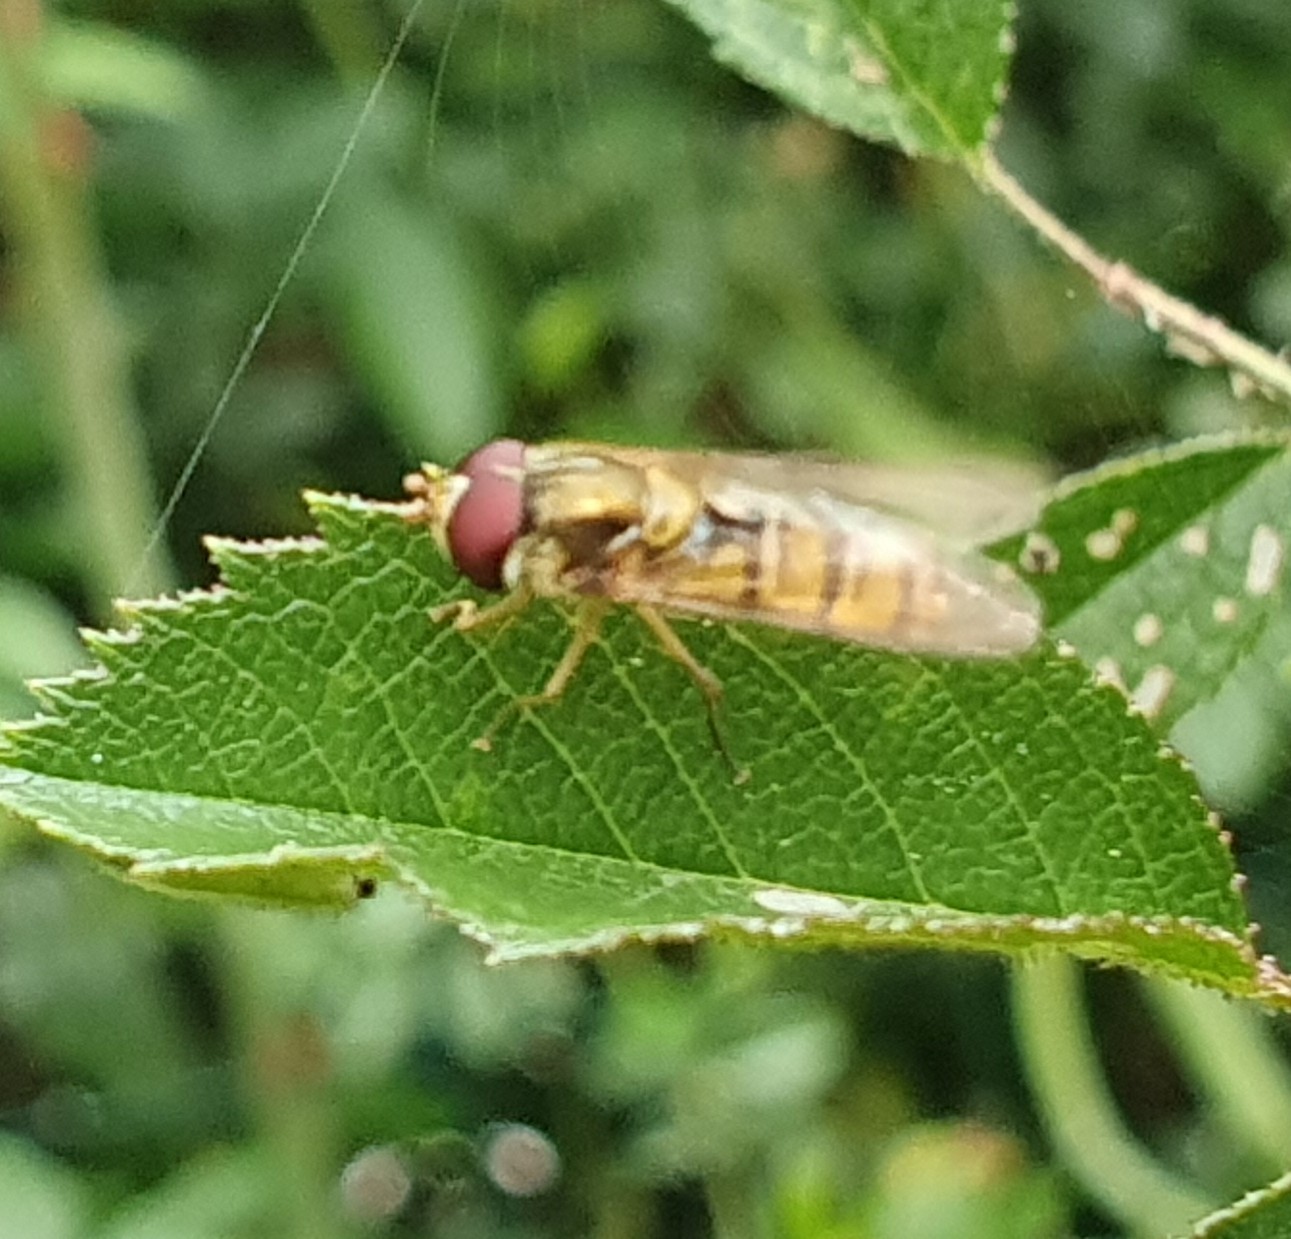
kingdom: Animalia
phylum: Arthropoda
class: Insecta
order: Diptera
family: Syrphidae
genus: Episyrphus
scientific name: Episyrphus balteatus
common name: Marmalade hoverfly
